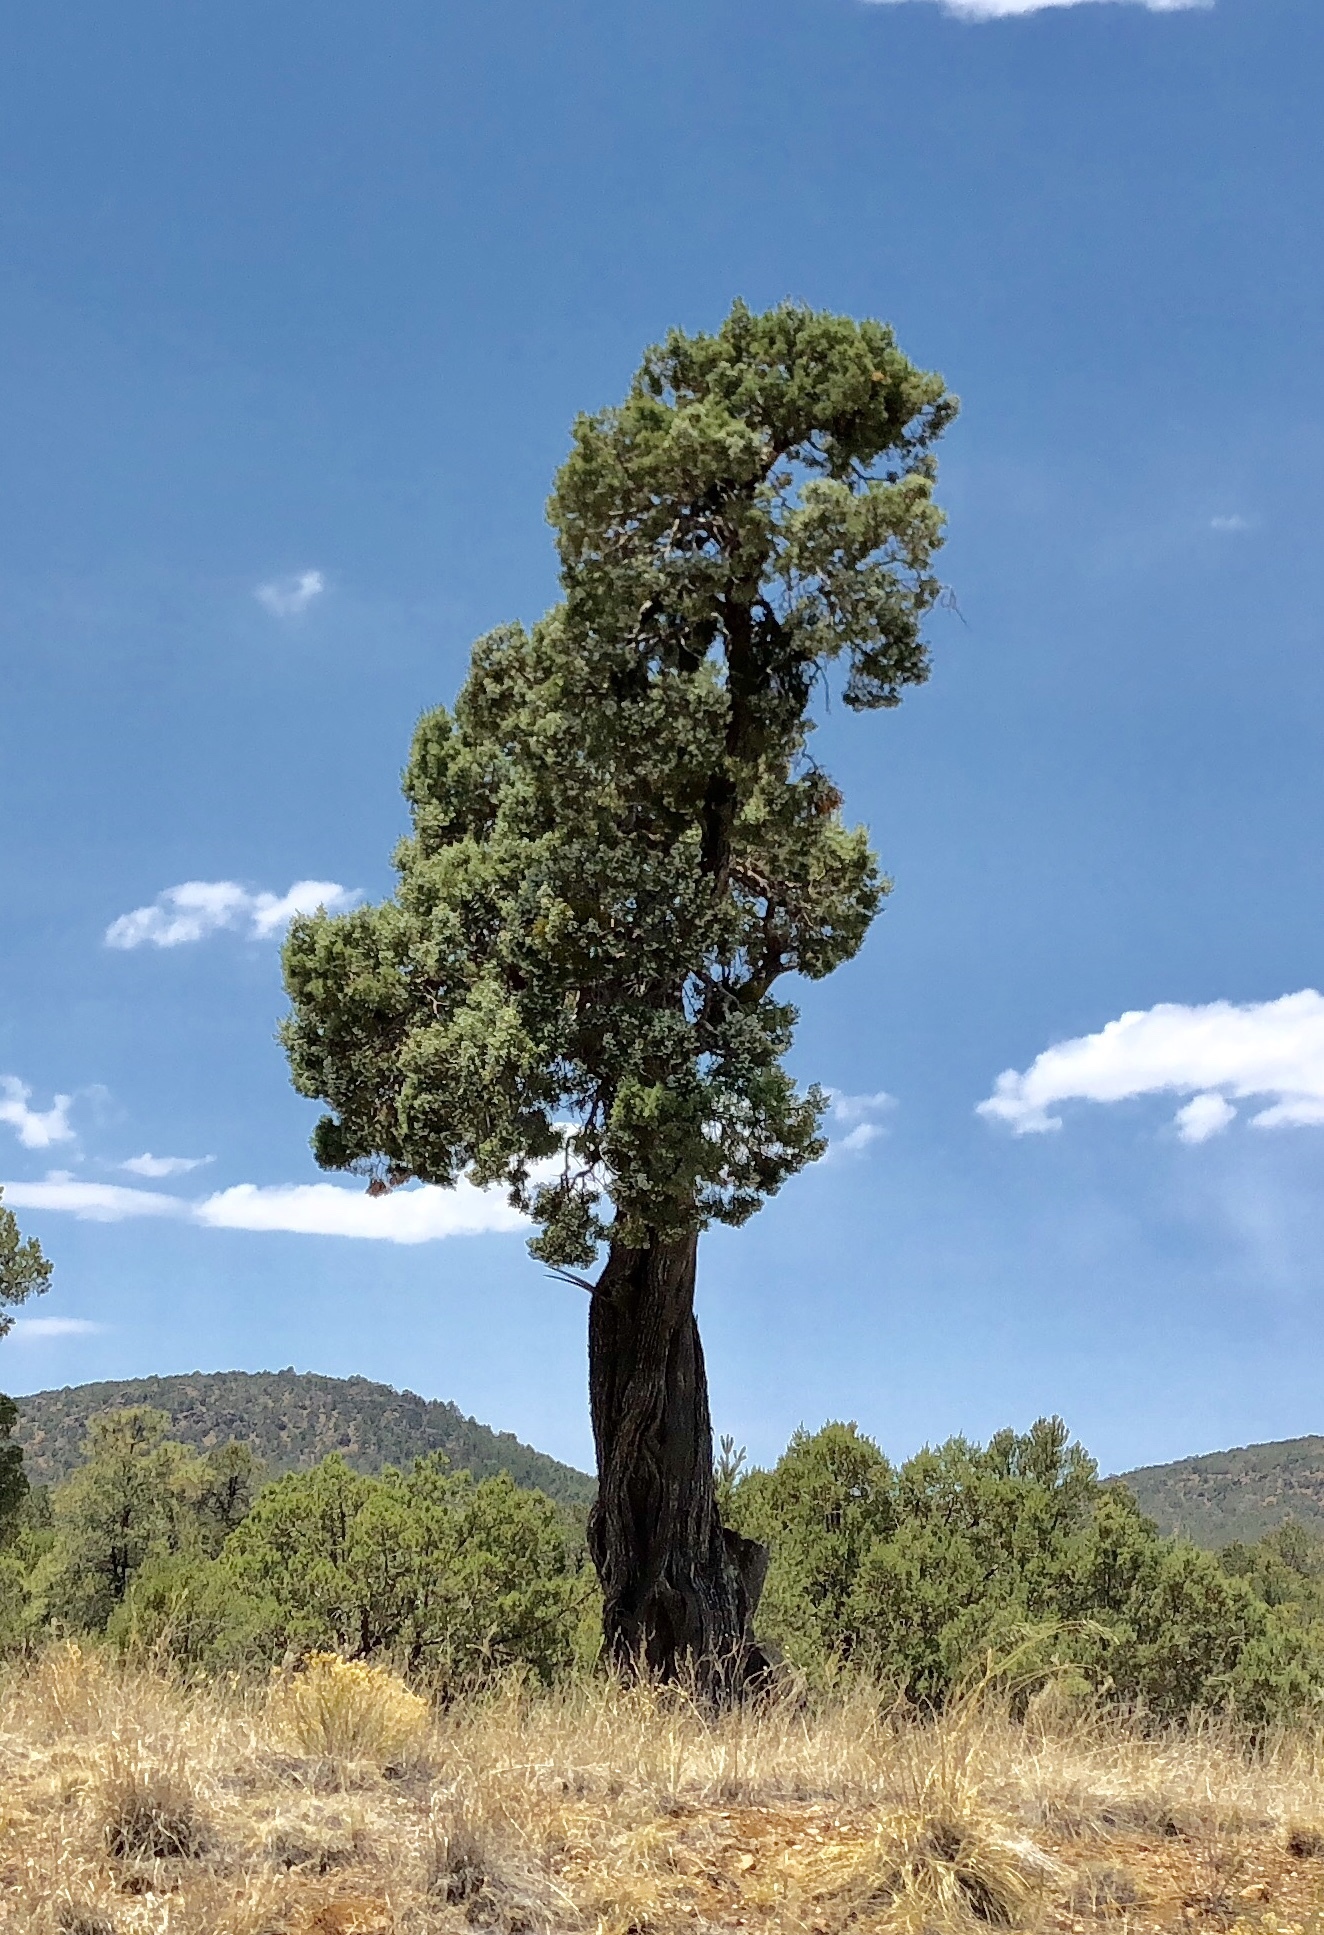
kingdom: Plantae
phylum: Tracheophyta
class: Pinopsida
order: Pinales
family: Cupressaceae
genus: Juniperus
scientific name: Juniperus deppeana
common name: Alligator juniper
